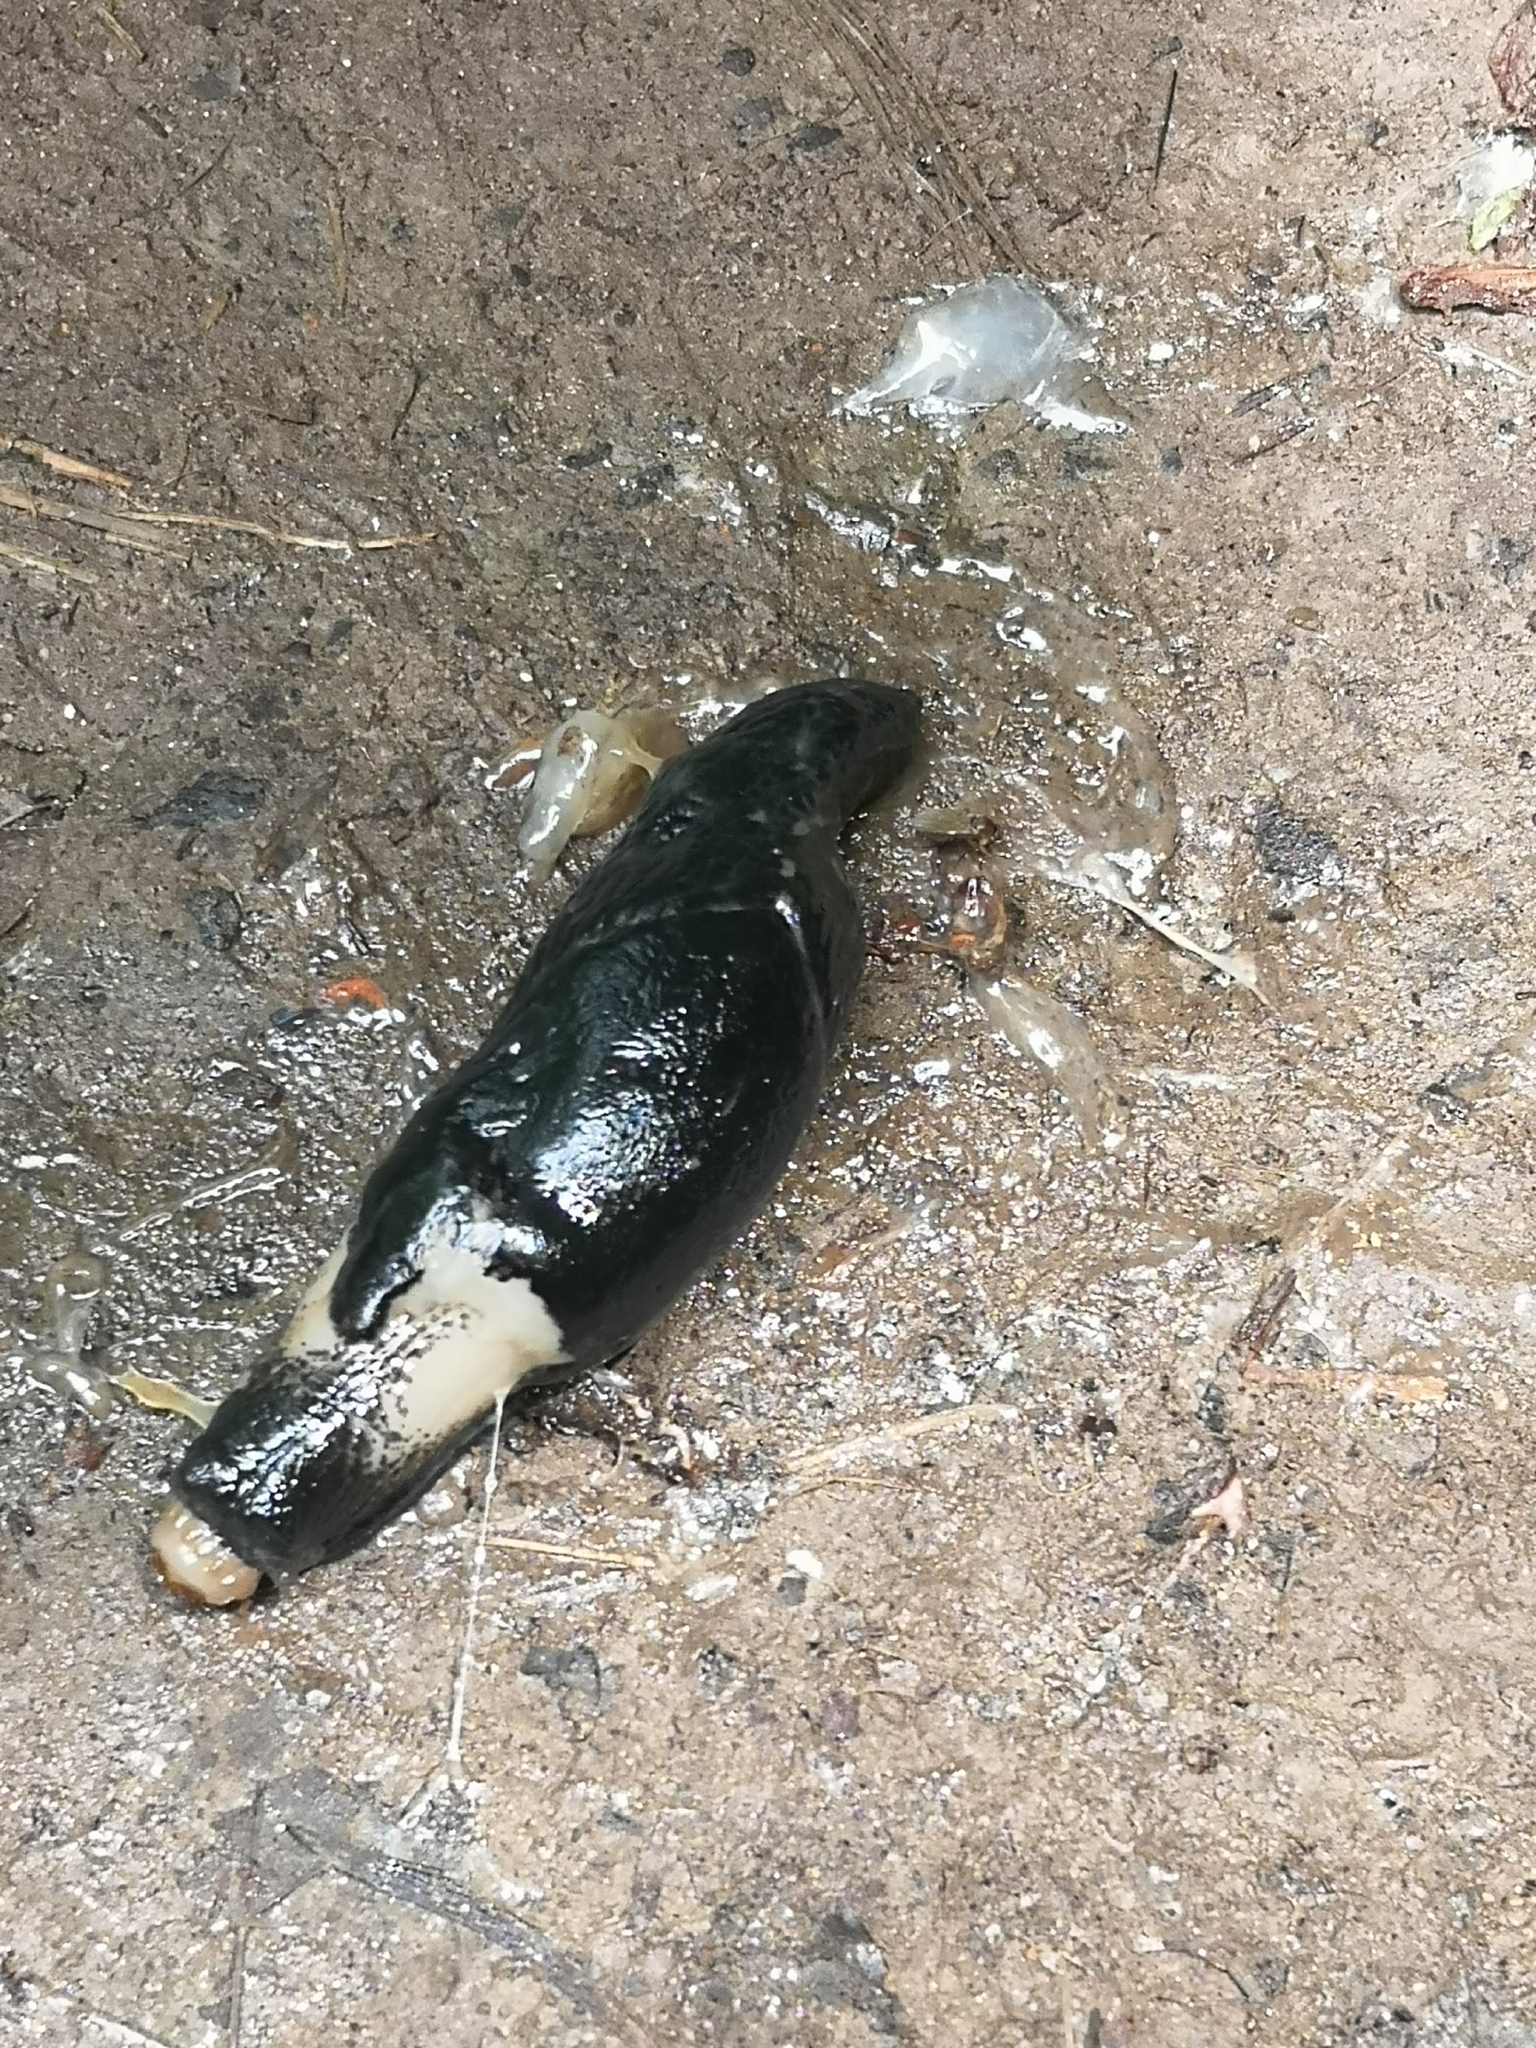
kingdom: Animalia
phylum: Mollusca
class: Gastropoda
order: Stylommatophora
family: Limacidae
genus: Limax
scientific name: Limax cinereoniger
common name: Ash-black slug
